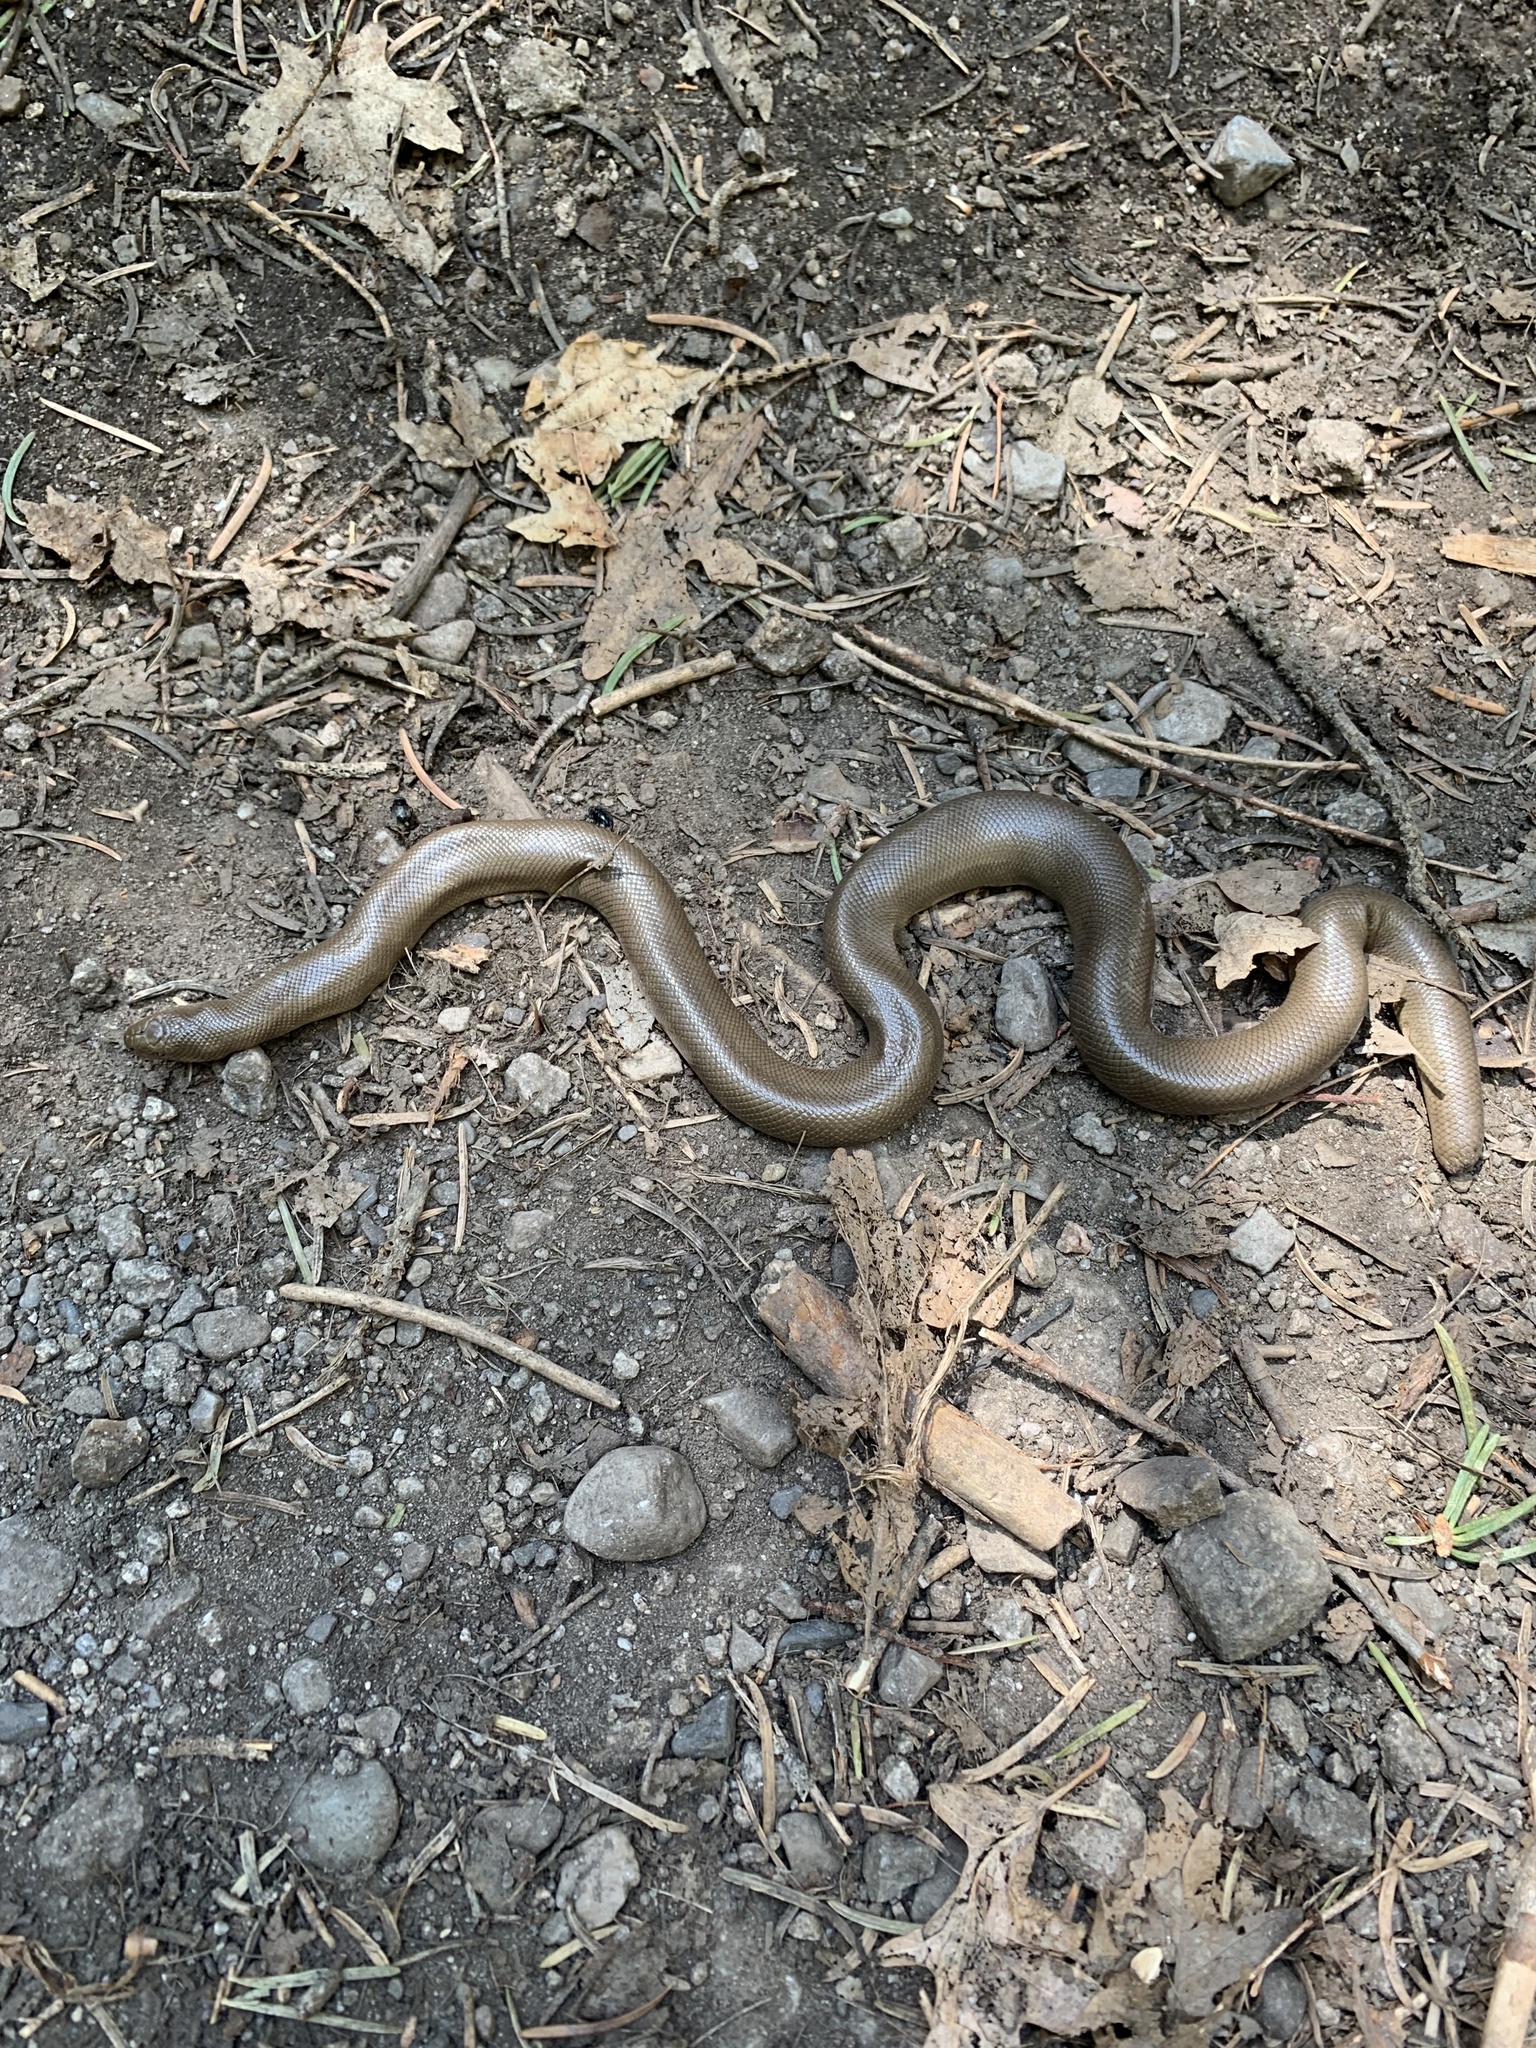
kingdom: Animalia
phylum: Chordata
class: Squamata
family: Boidae
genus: Charina
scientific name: Charina bottae
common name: Northern rubber boa
